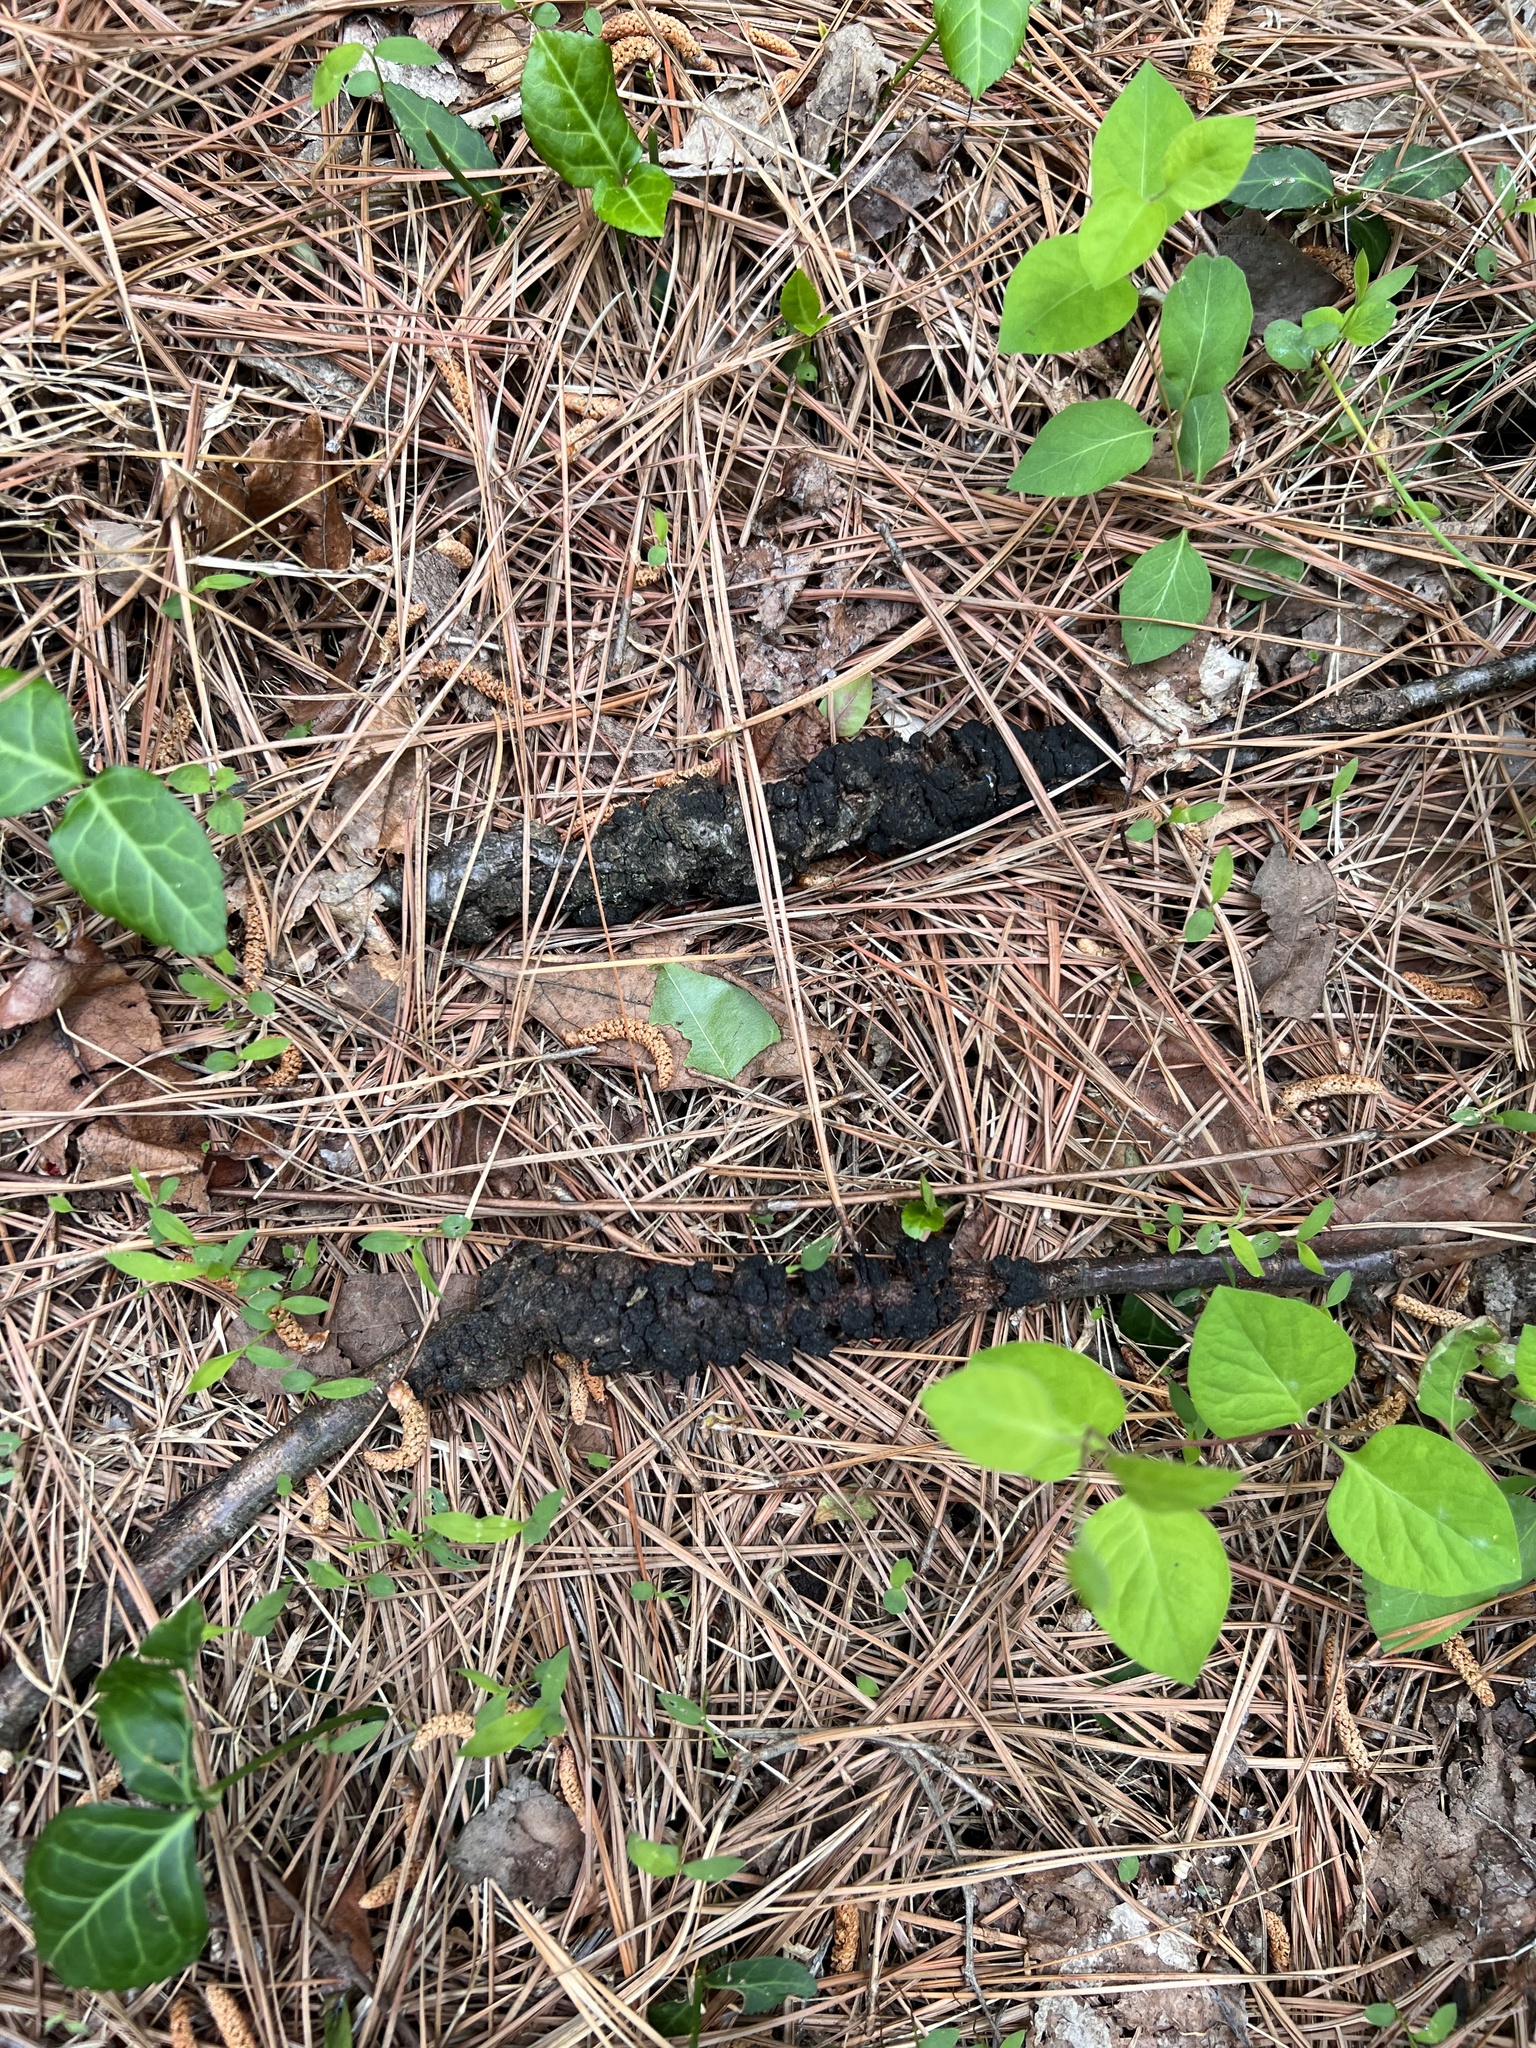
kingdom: Fungi
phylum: Ascomycota
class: Dothideomycetes
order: Venturiales
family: Venturiaceae
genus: Apiosporina
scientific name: Apiosporina morbosa
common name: Black knot
